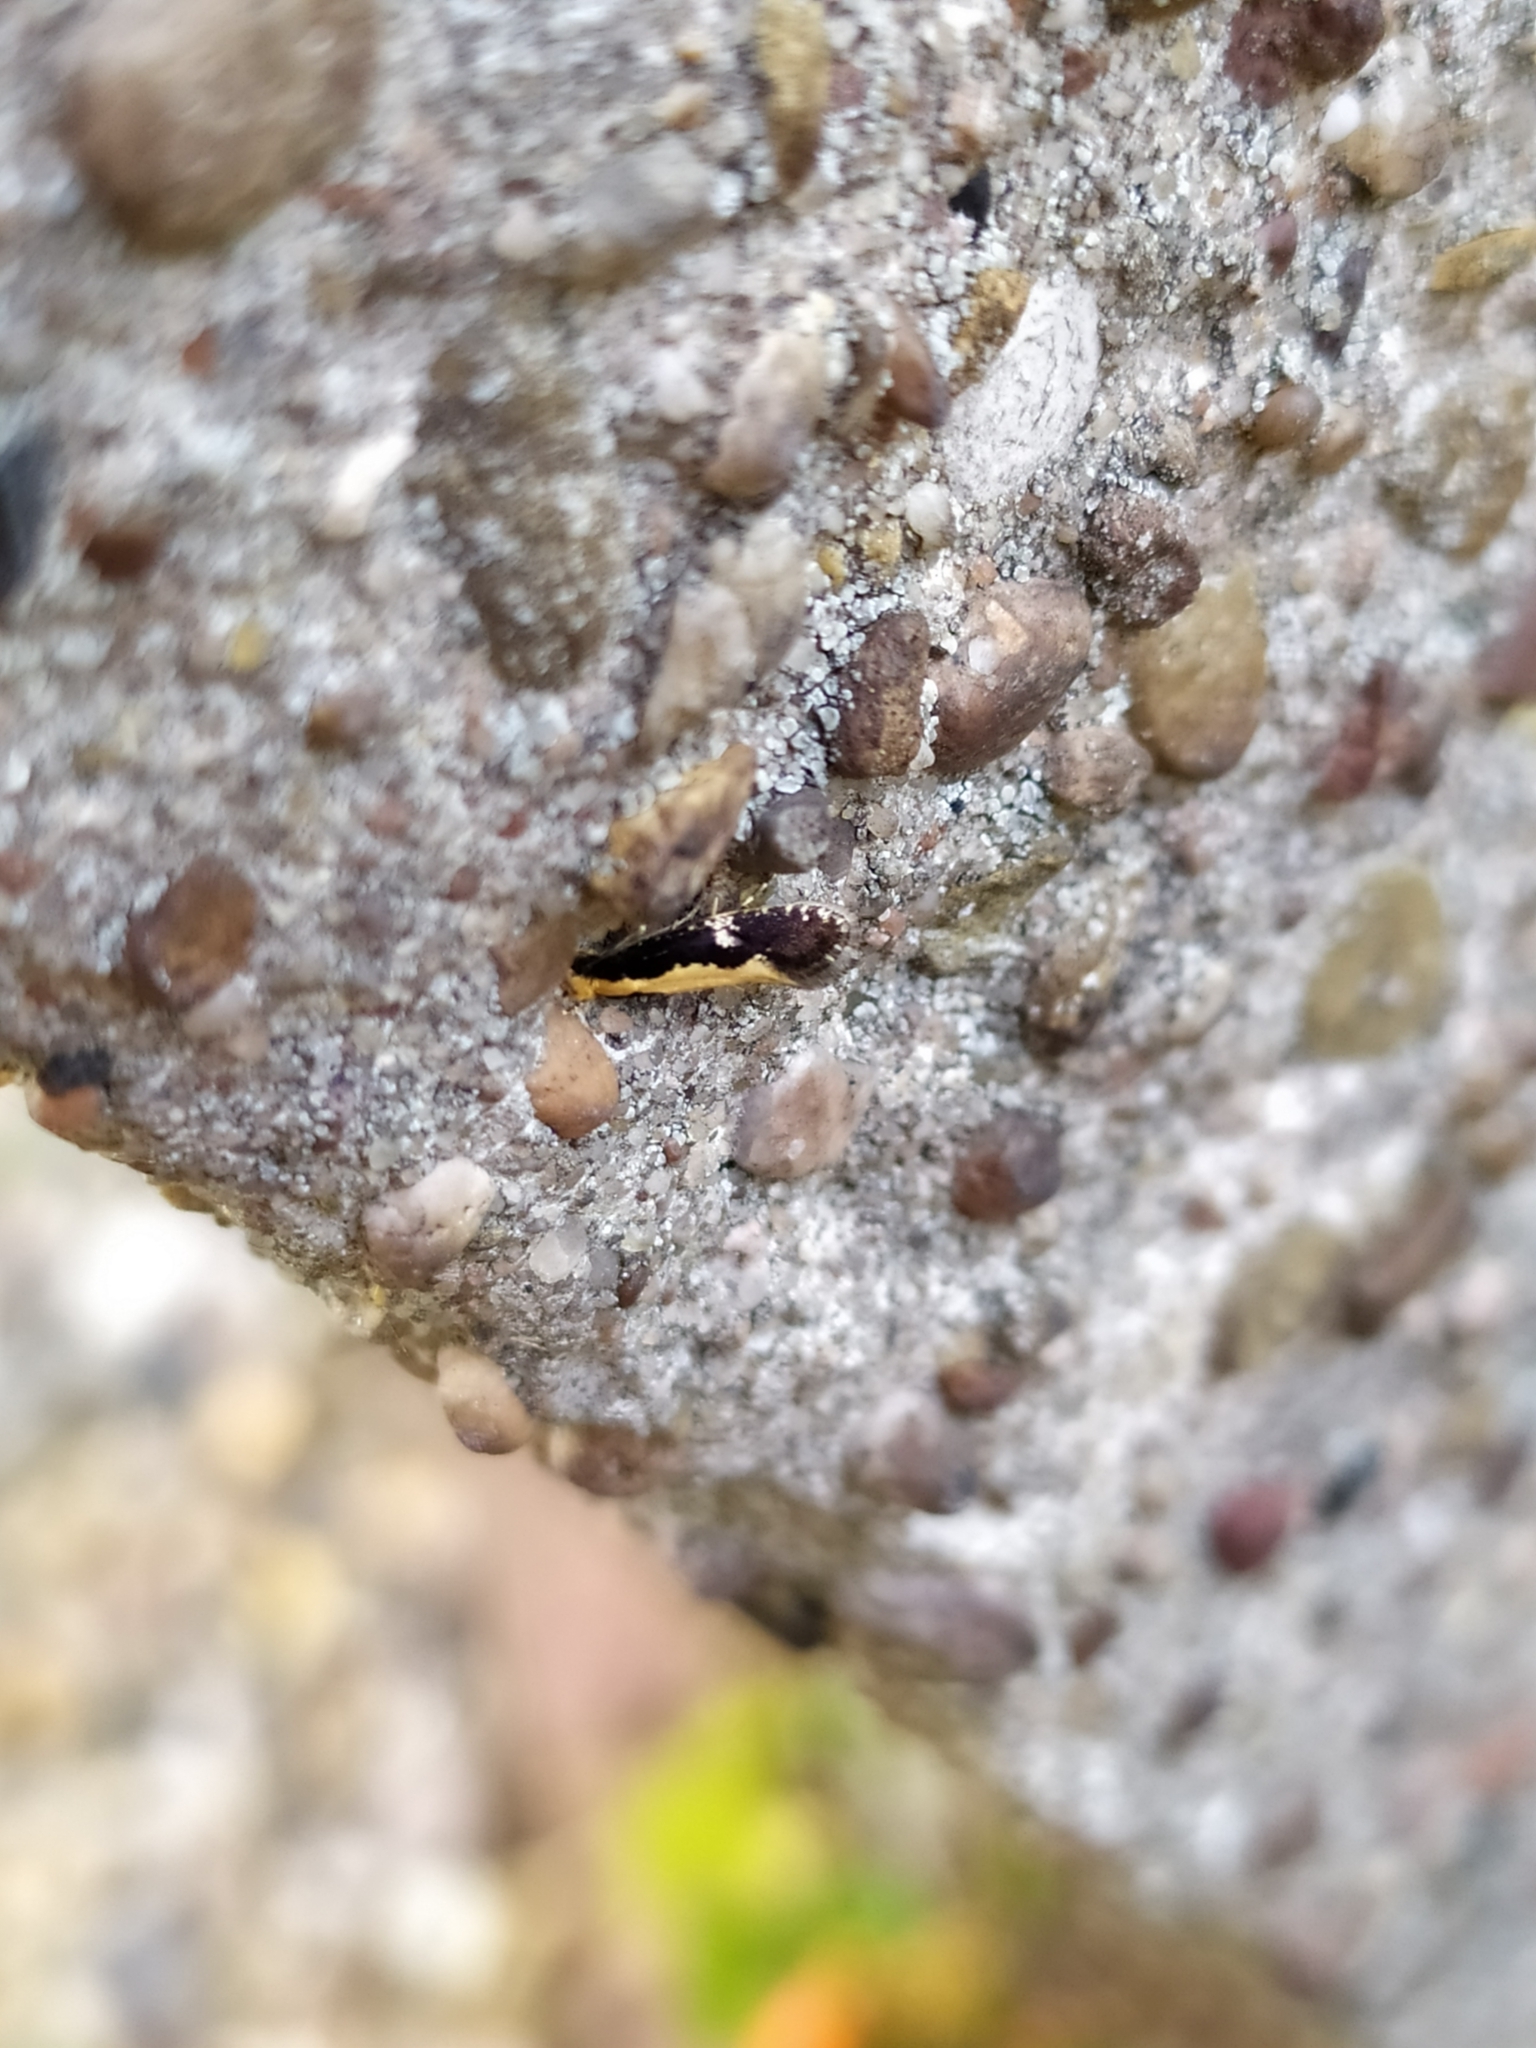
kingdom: Animalia
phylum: Arthropoda
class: Insecta
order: Lepidoptera
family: Tineidae
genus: Monopis
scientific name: Monopis obviella
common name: Tineid moth
